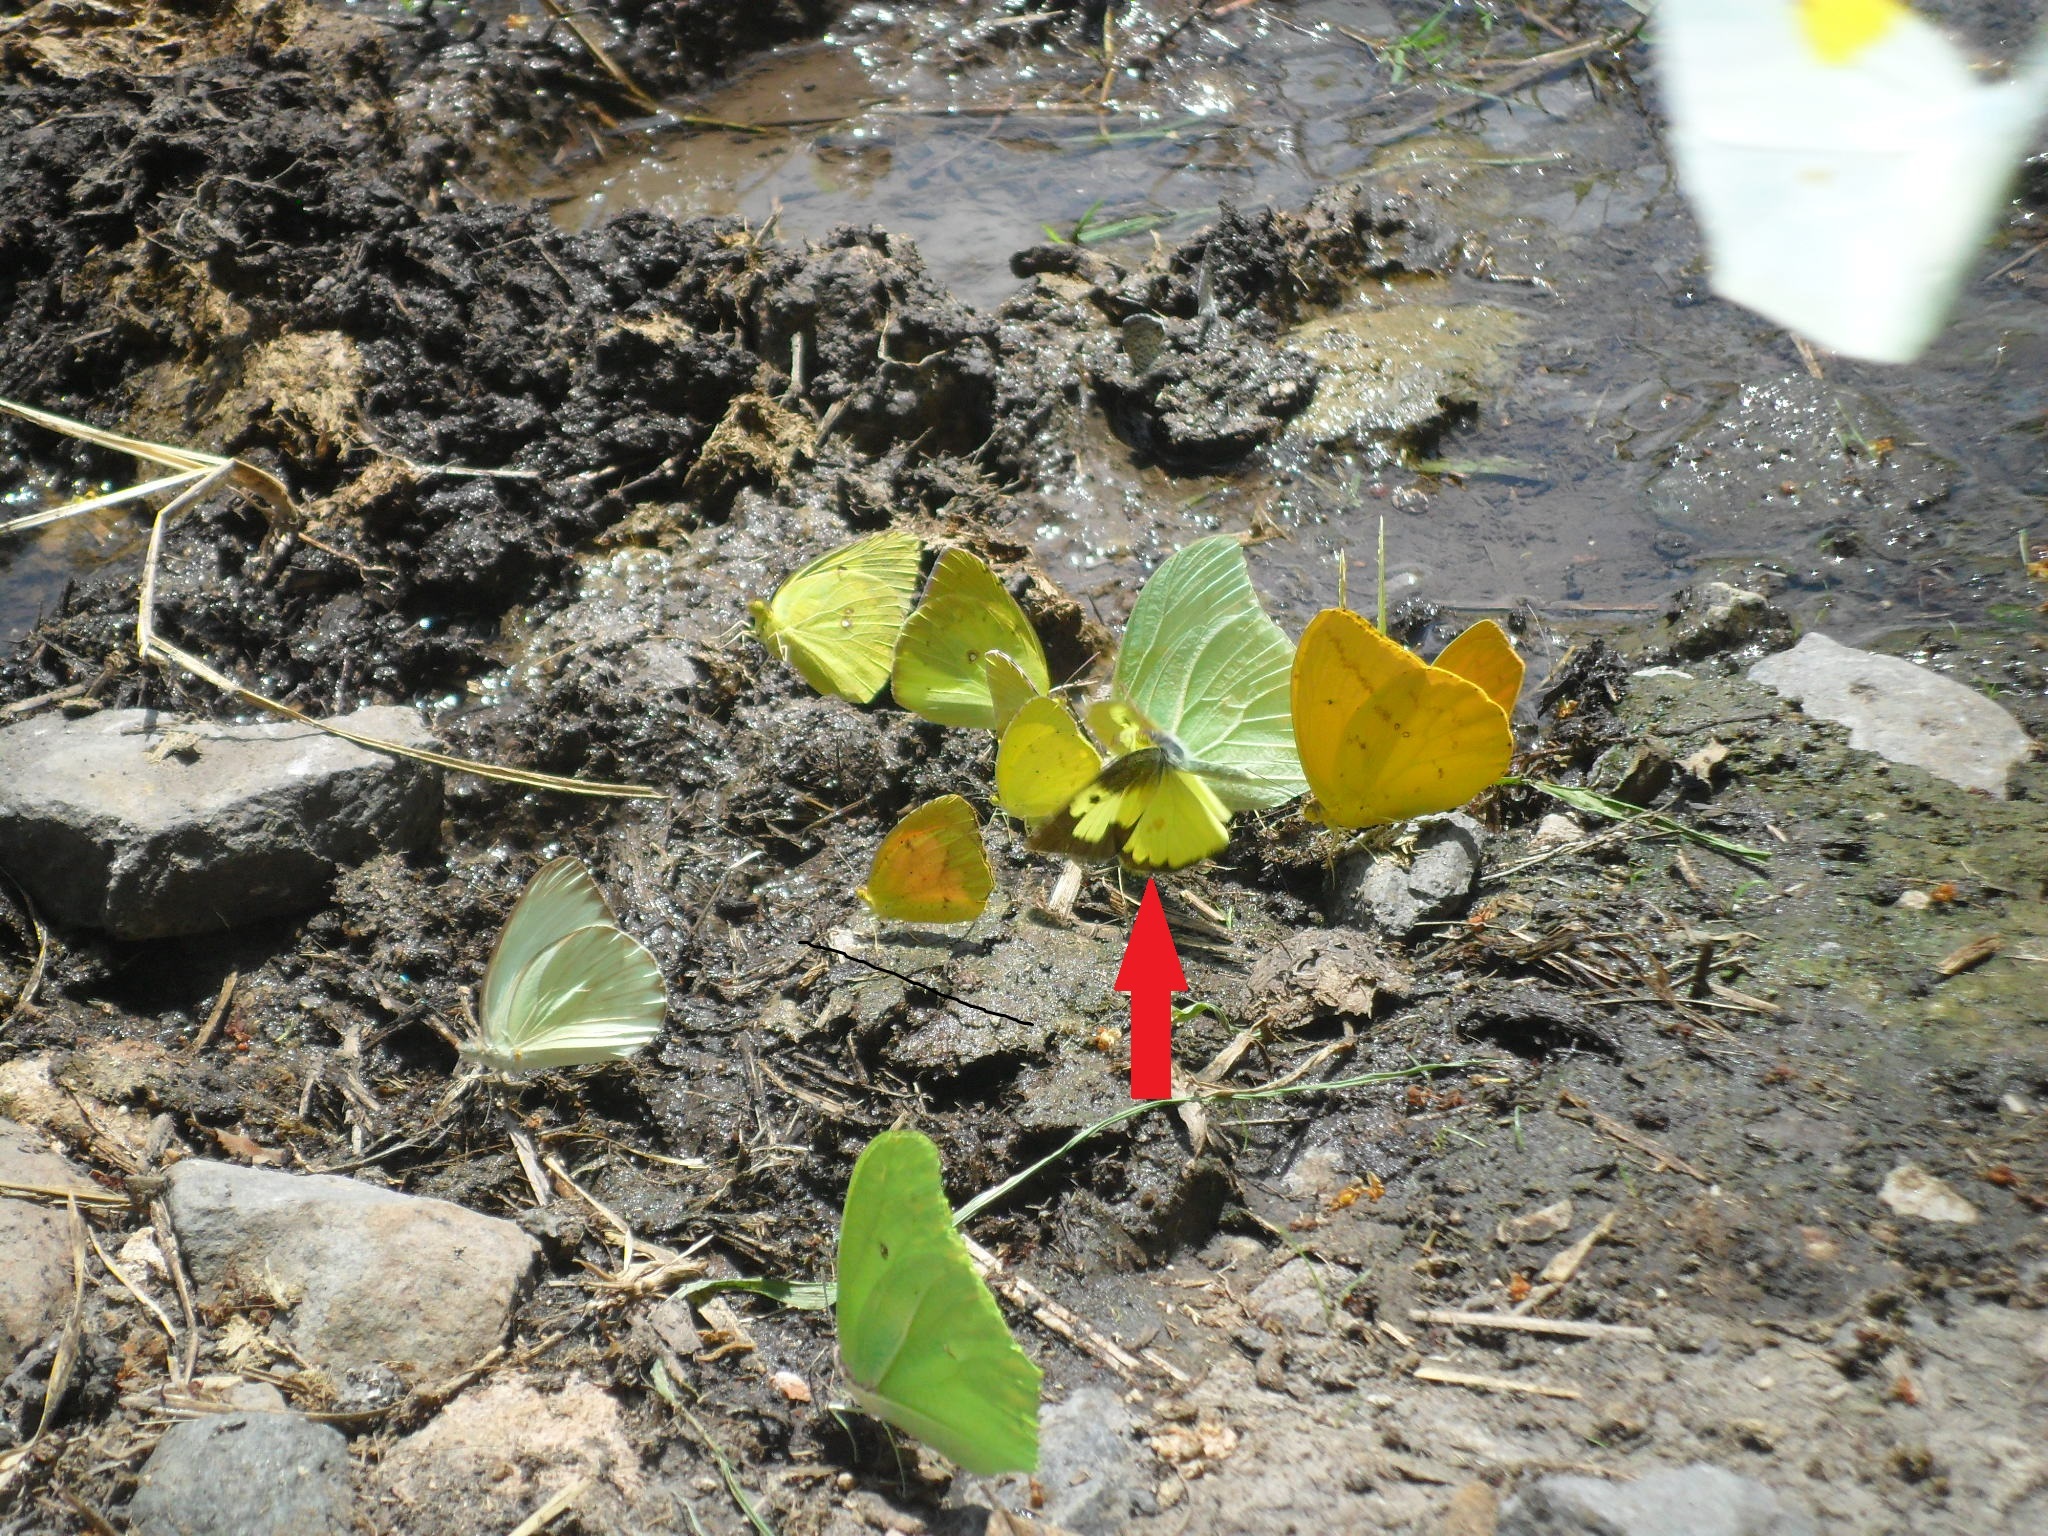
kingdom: Animalia
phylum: Arthropoda
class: Insecta
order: Lepidoptera
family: Pieridae
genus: Zerene
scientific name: Zerene cesonia
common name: Southern dogface
